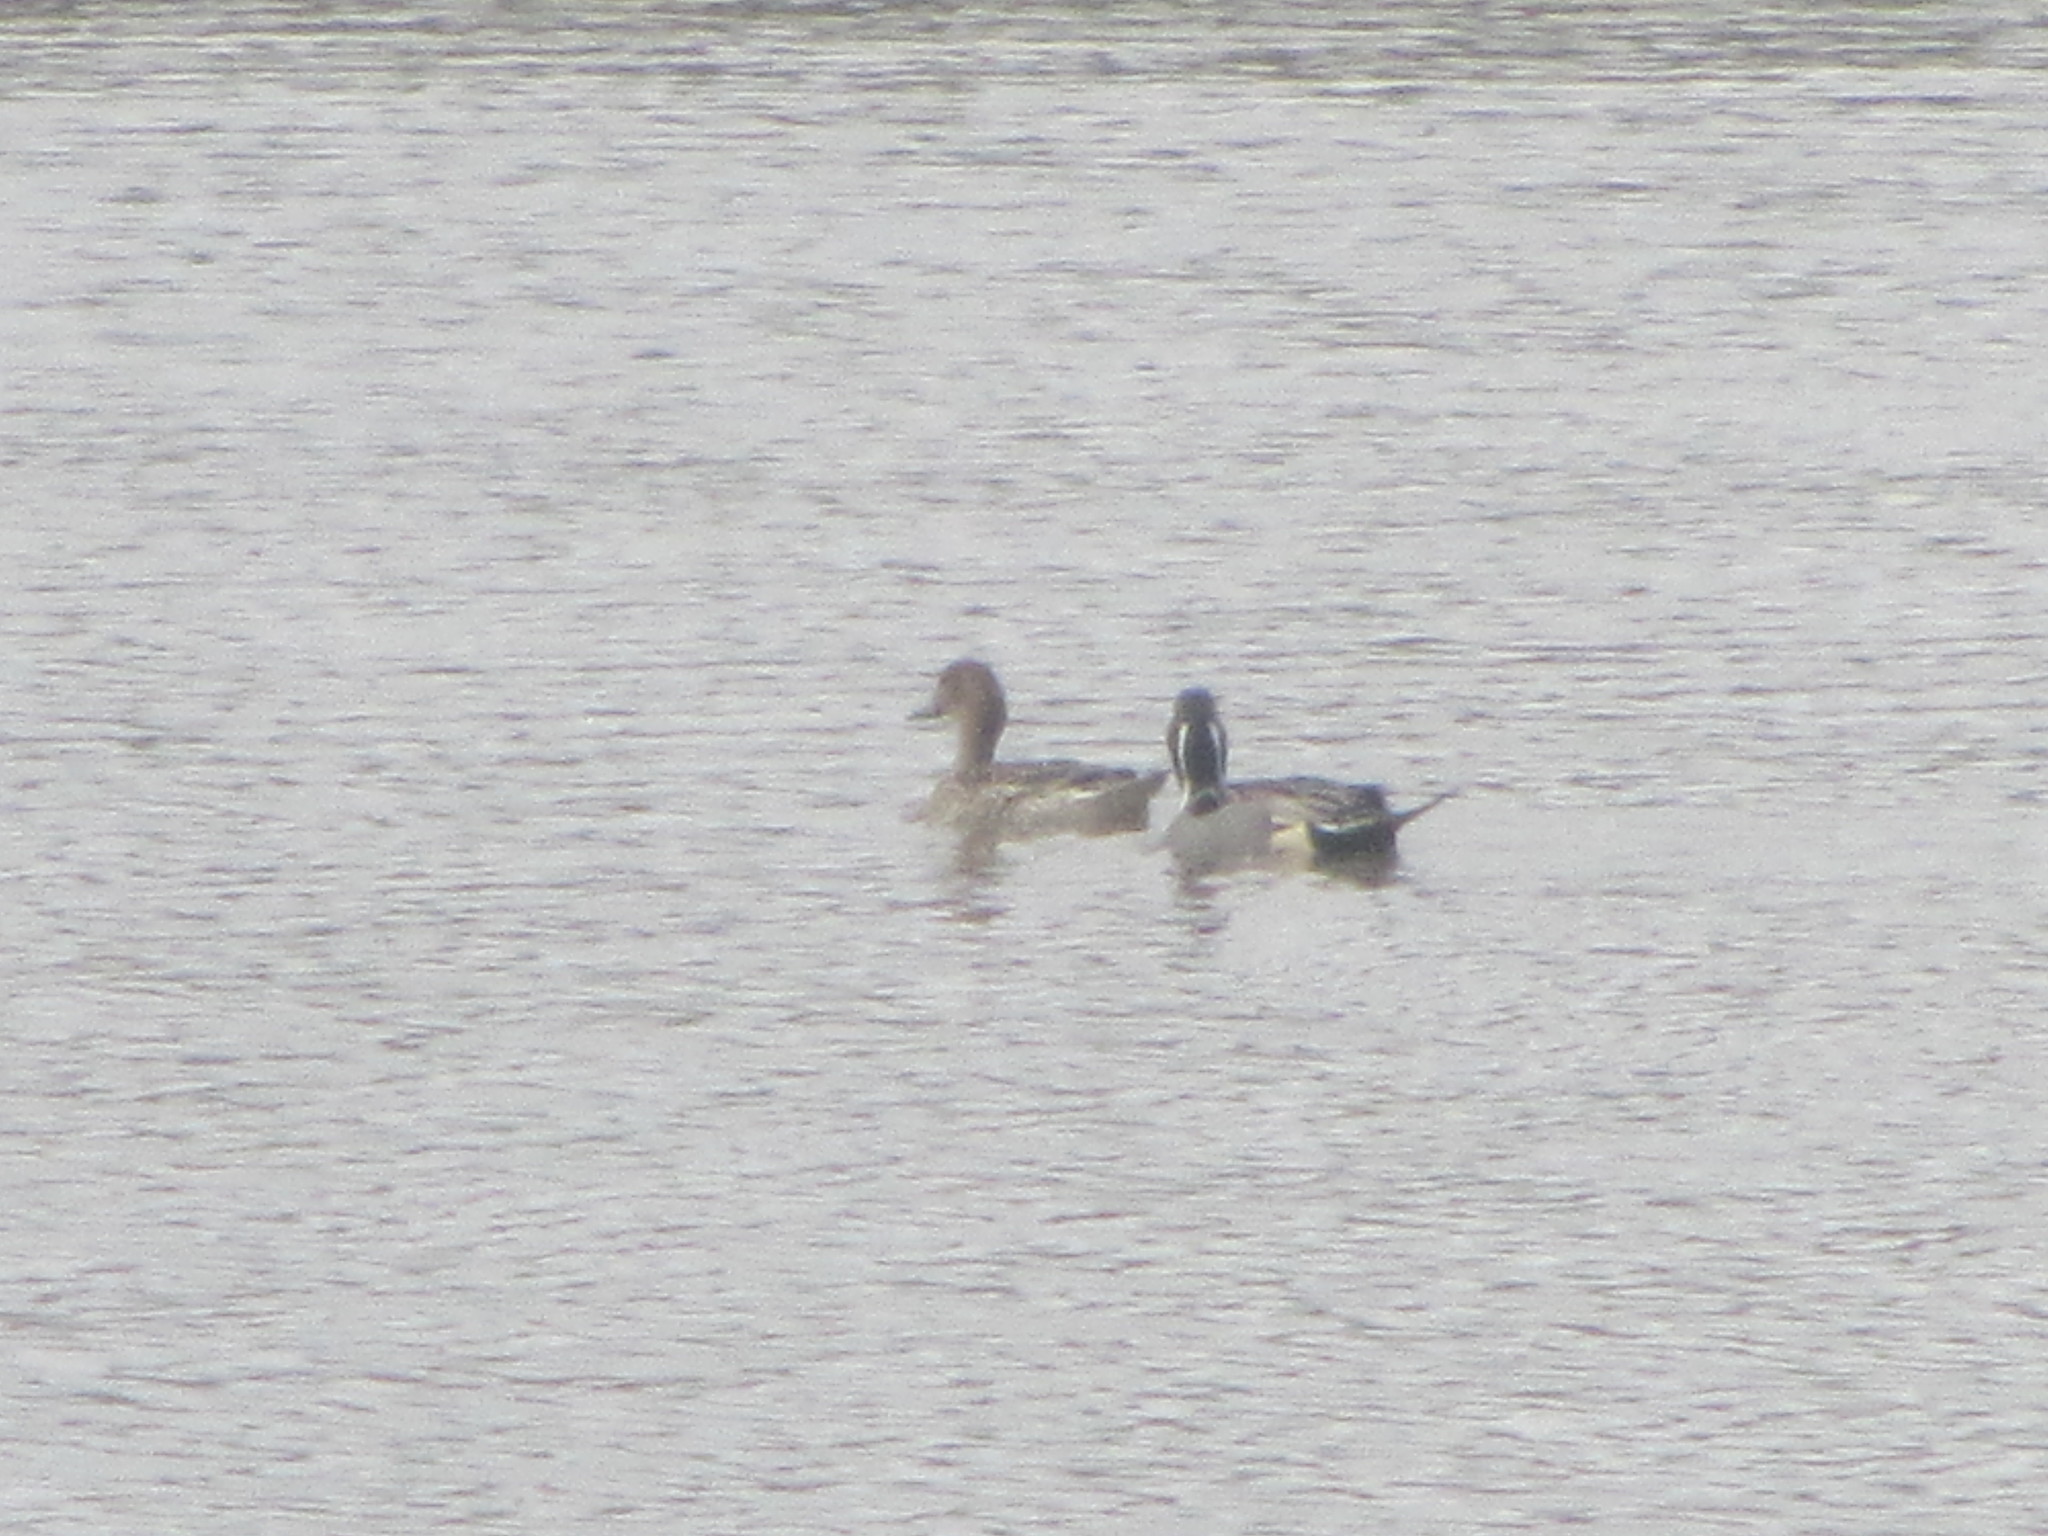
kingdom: Animalia
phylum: Chordata
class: Aves
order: Anseriformes
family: Anatidae
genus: Anas
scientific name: Anas acuta
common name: Northern pintail
